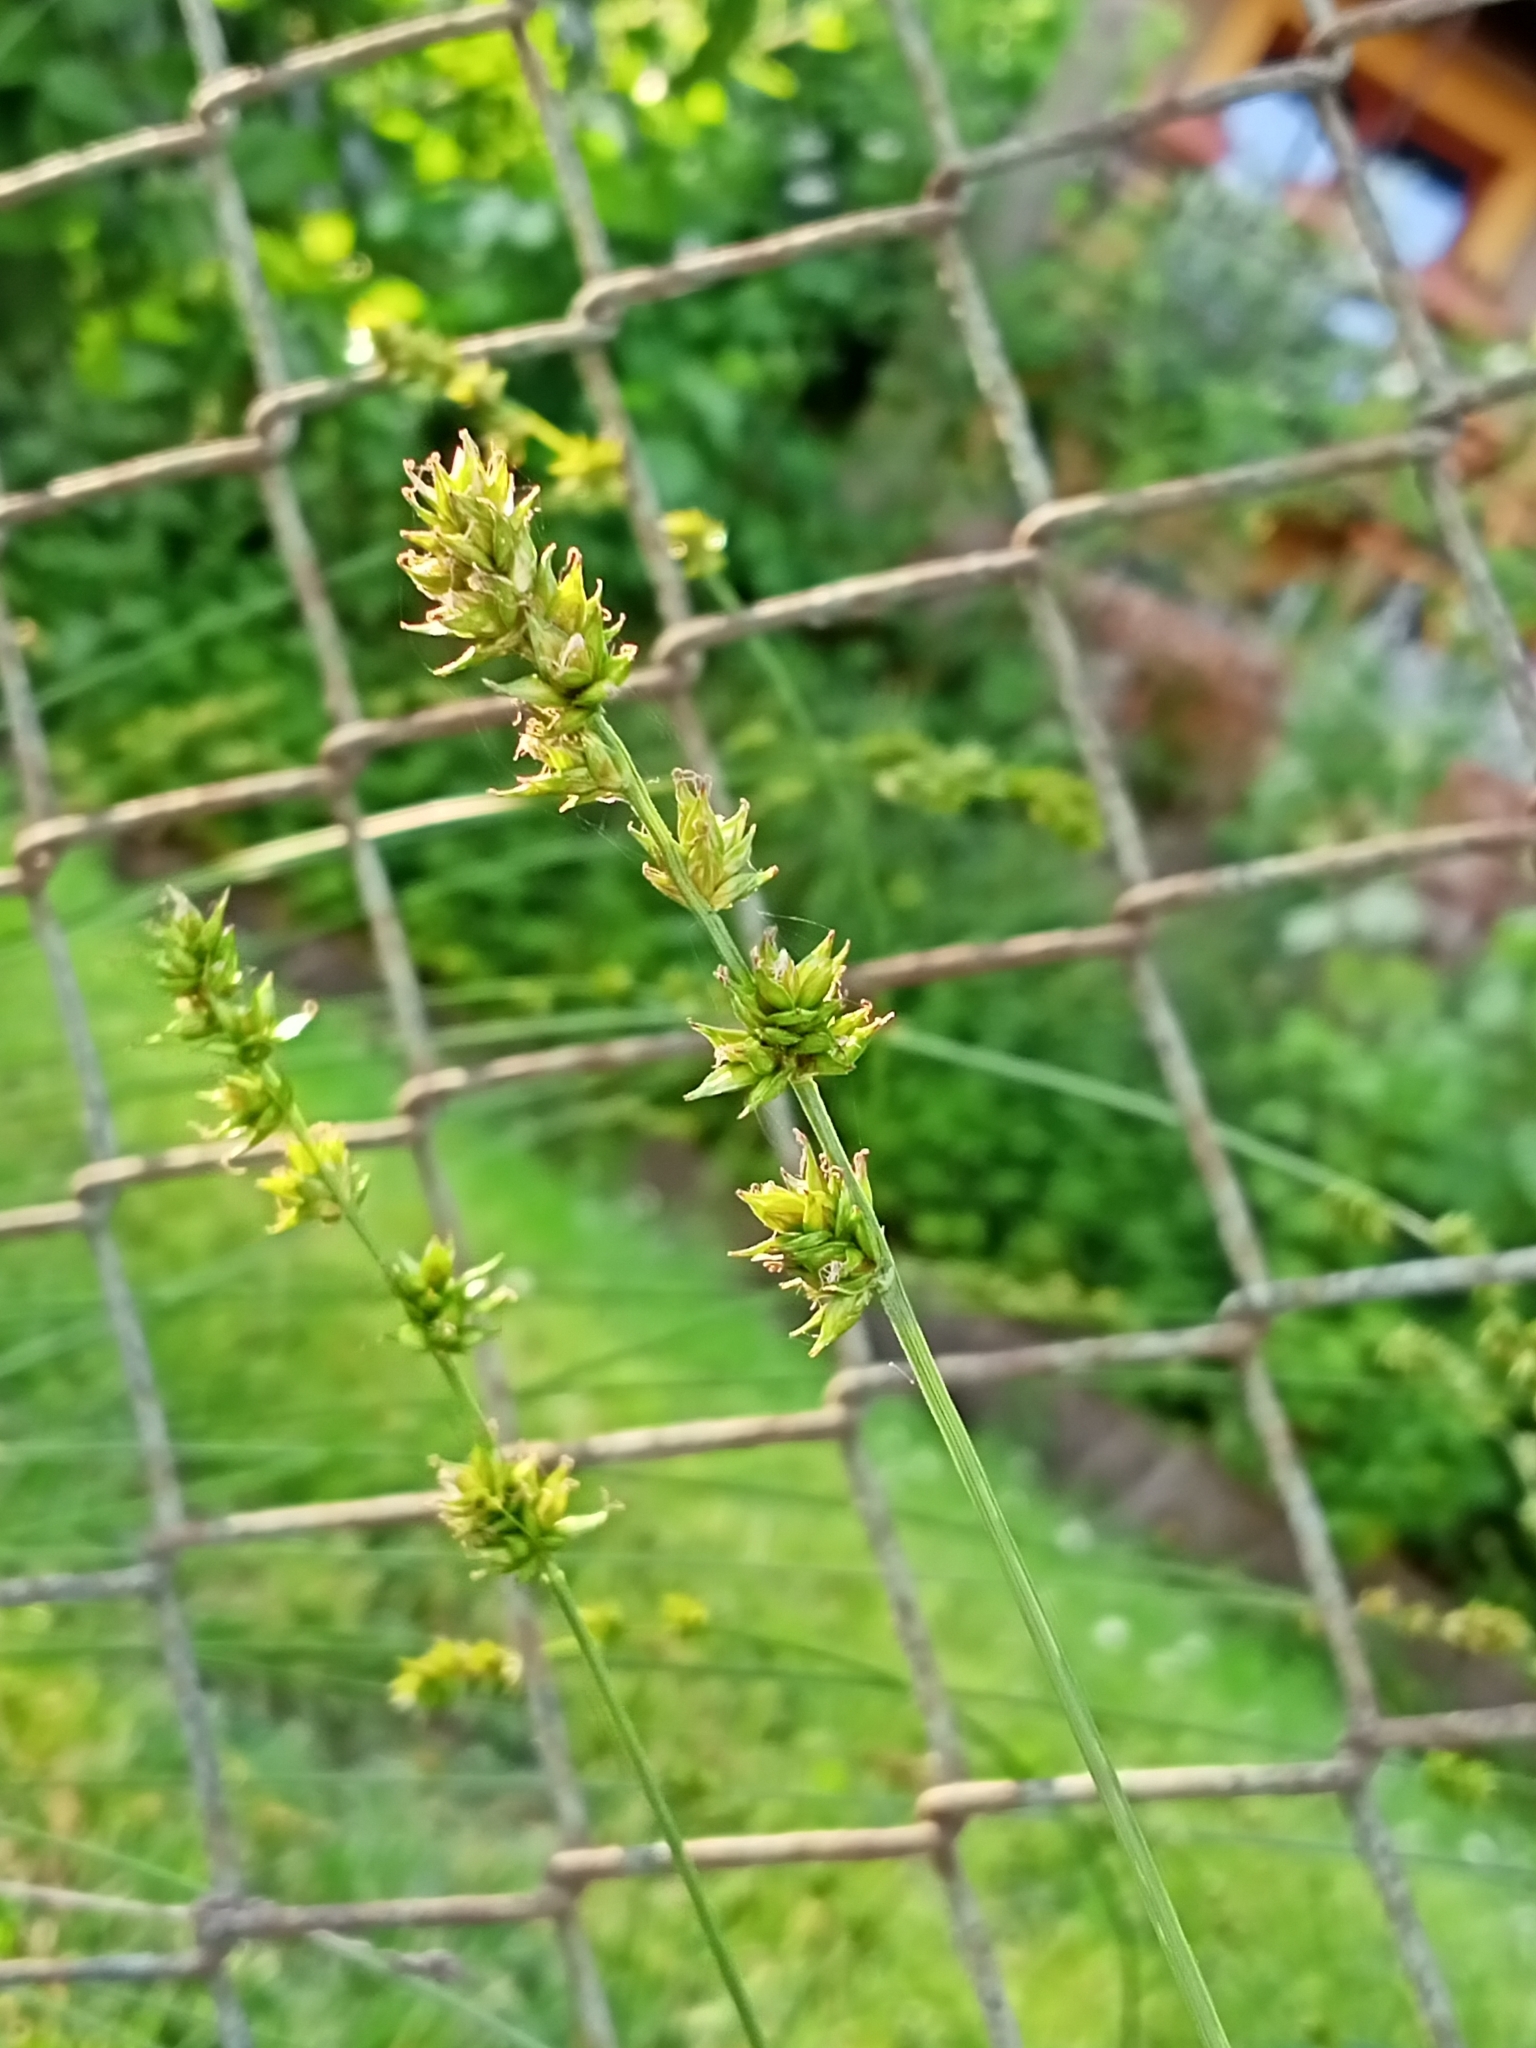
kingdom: Plantae
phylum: Tracheophyta
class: Liliopsida
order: Poales
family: Cyperaceae
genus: Carex
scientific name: Carex leersii
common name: Leers' sedge
